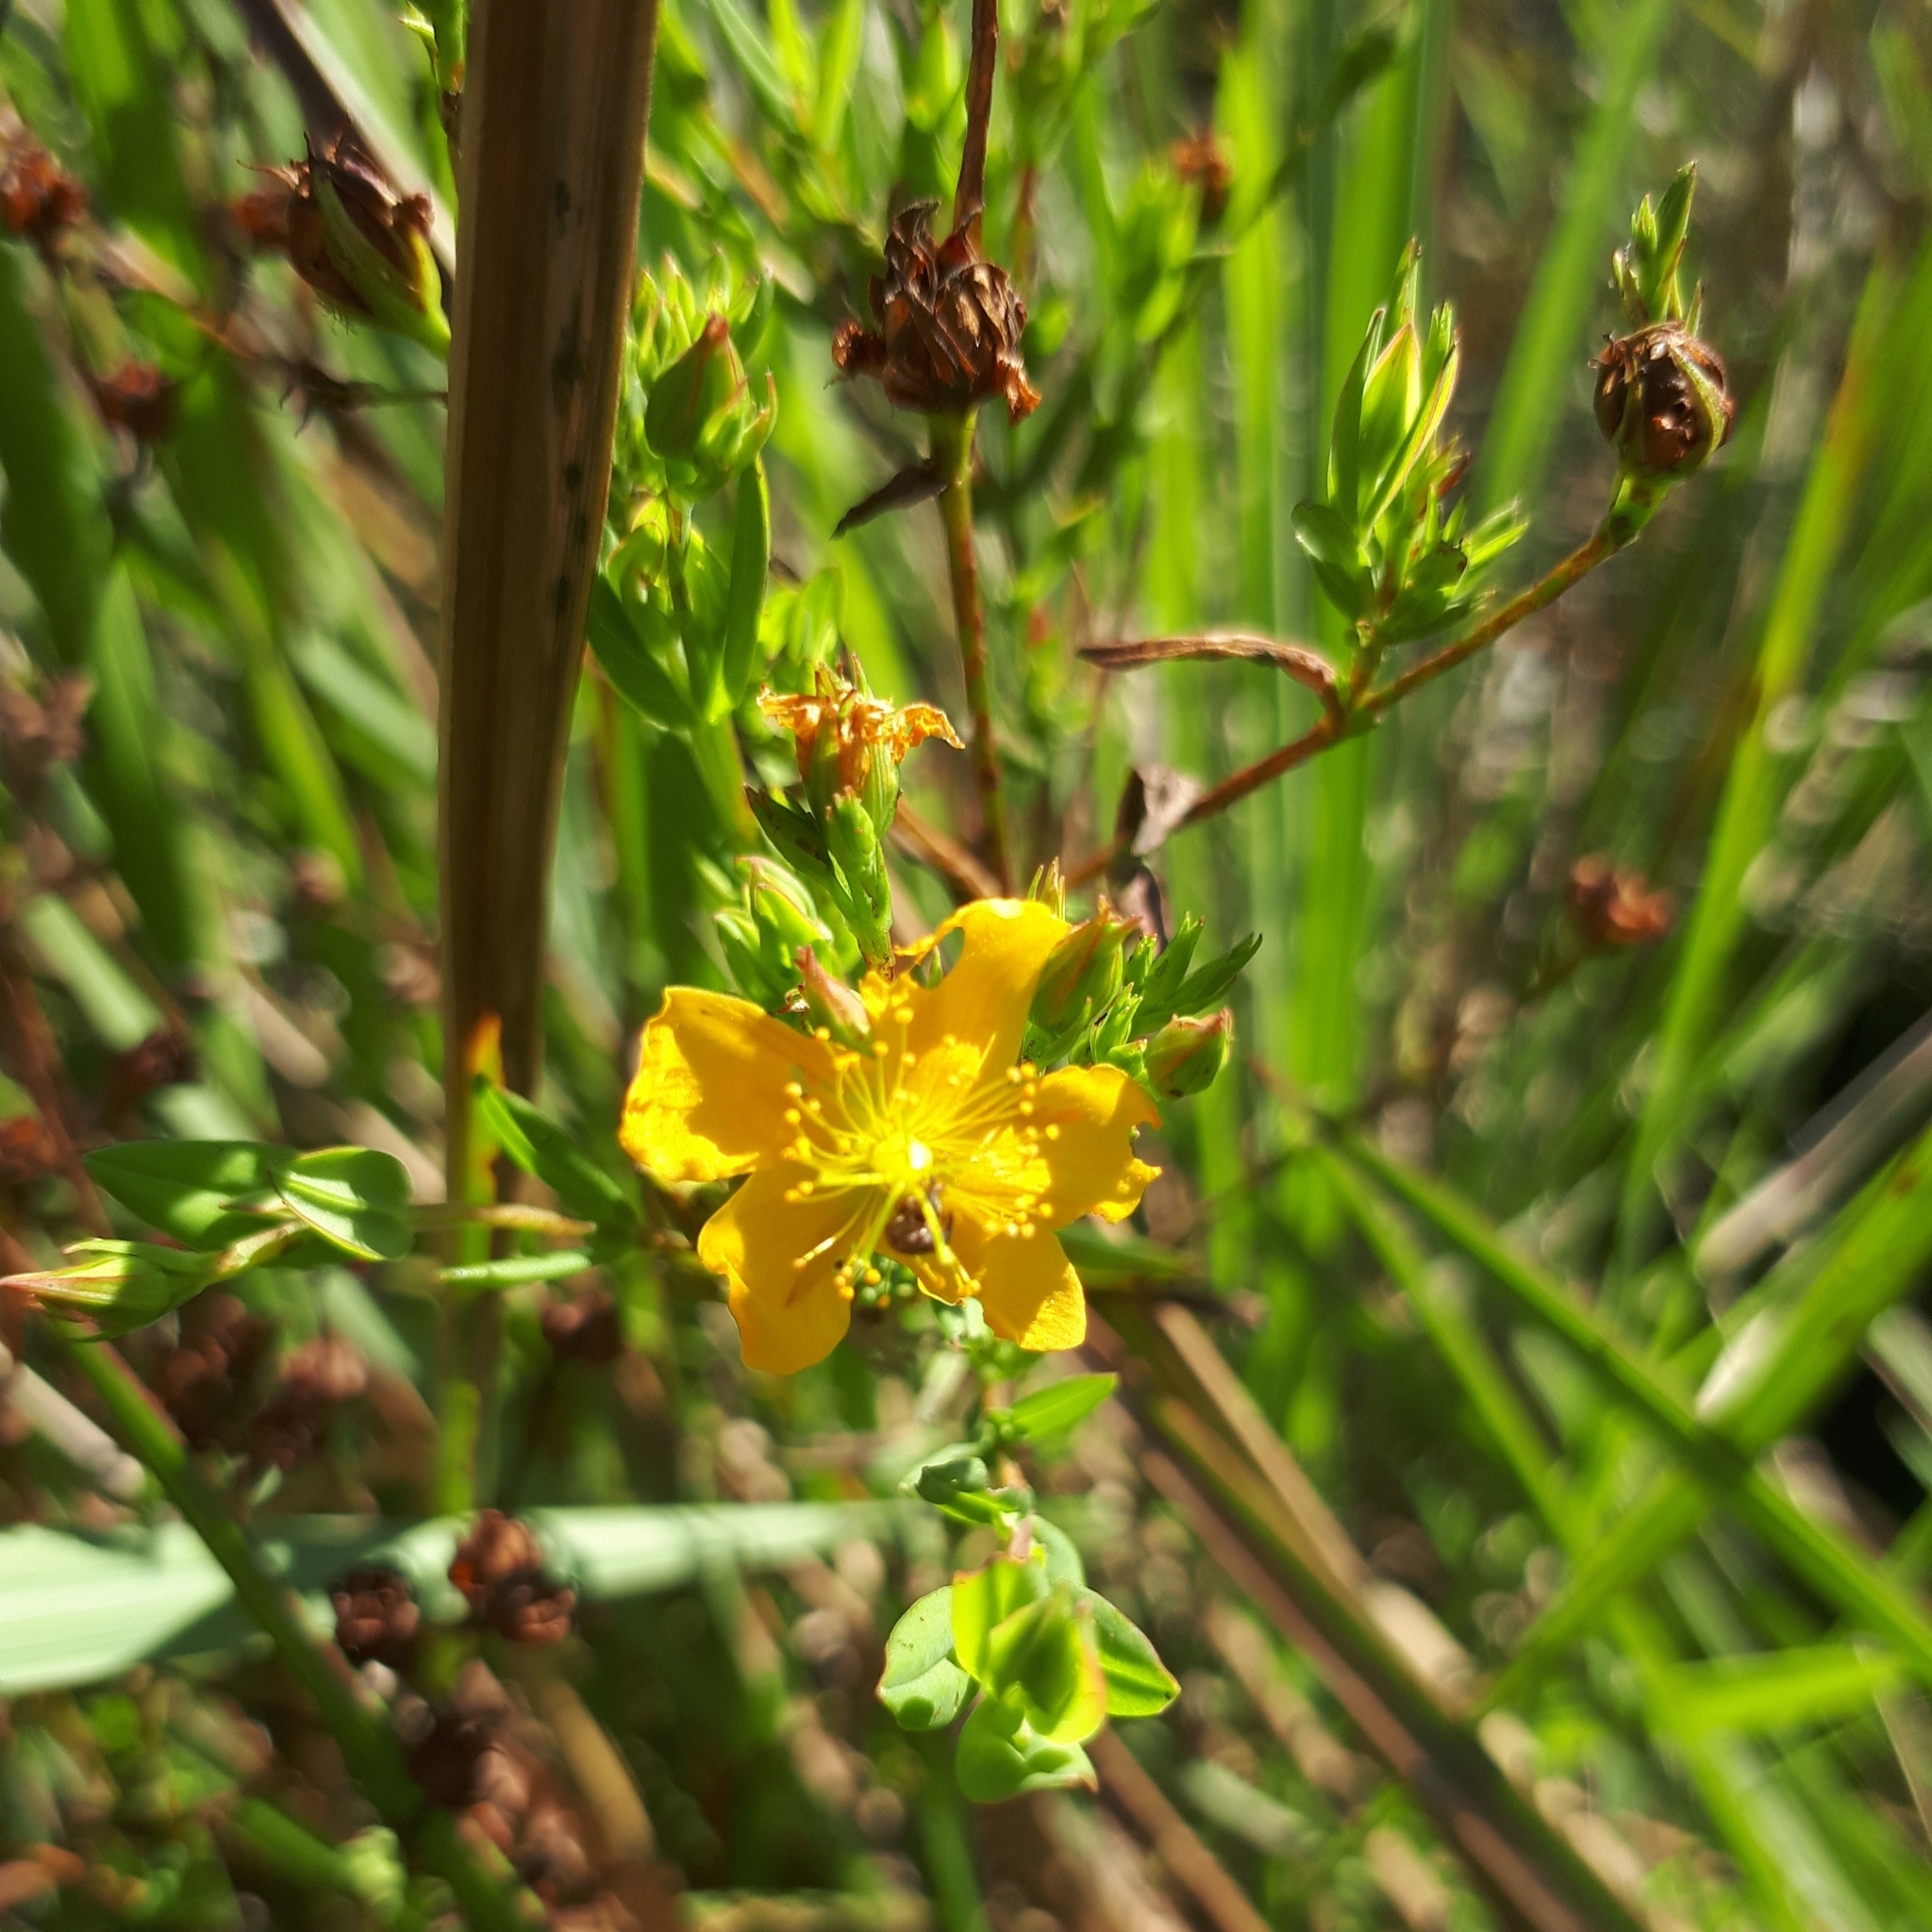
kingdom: Plantae
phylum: Tracheophyta
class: Magnoliopsida
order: Malpighiales
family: Hypericaceae
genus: Hypericum
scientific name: Hypericum brasiliense
